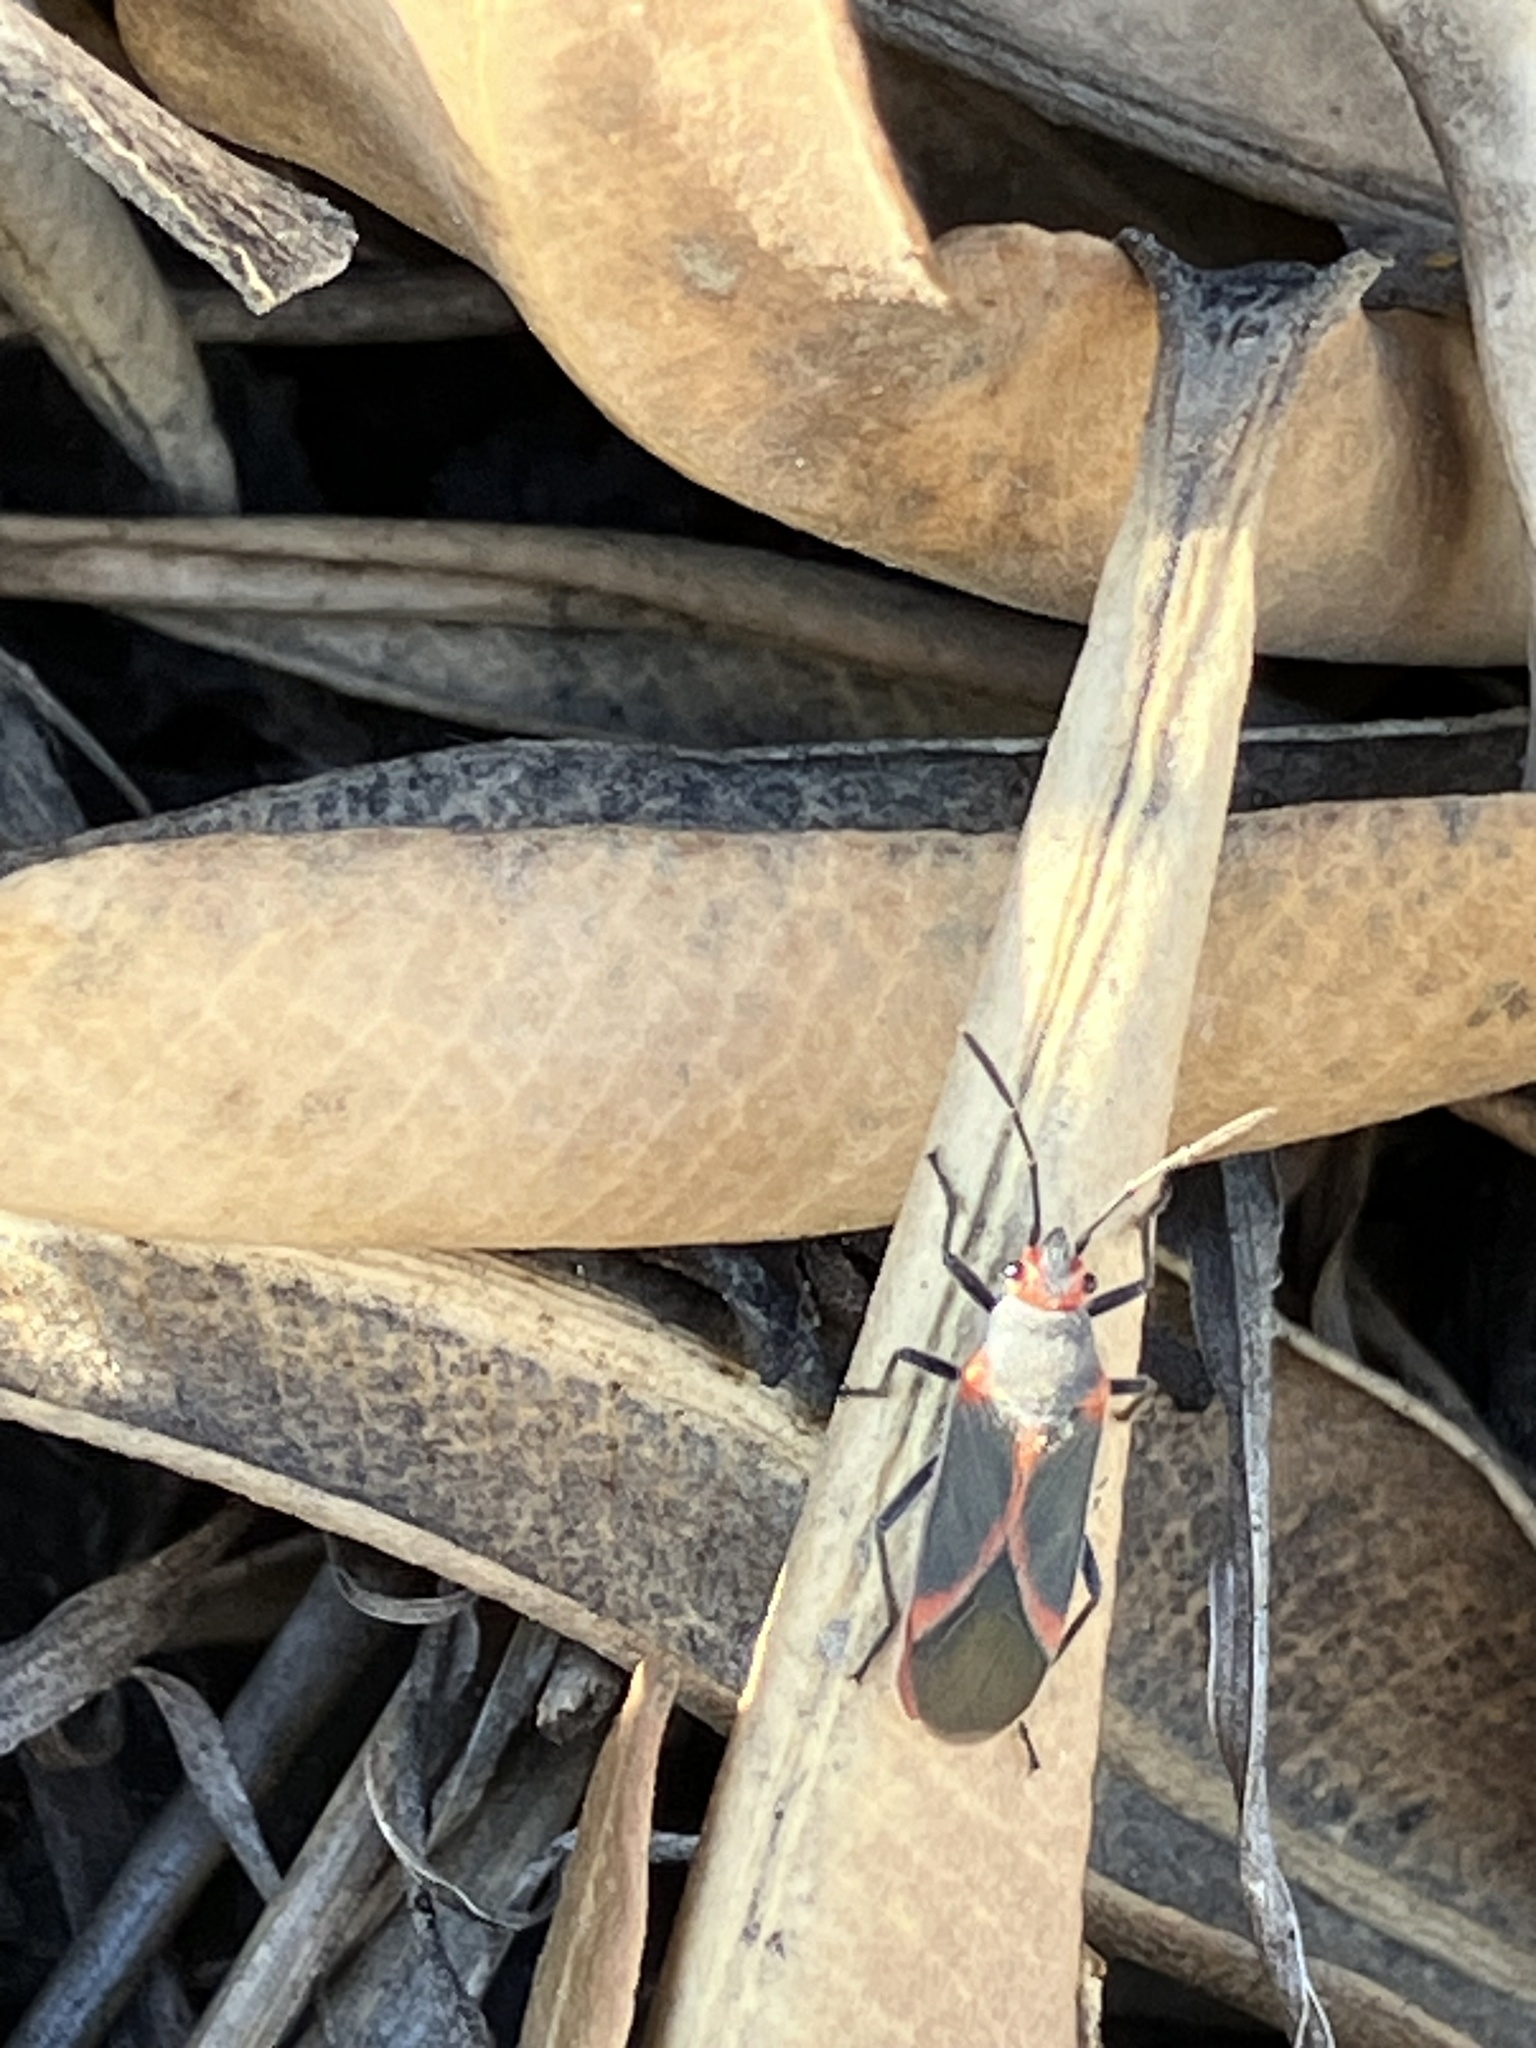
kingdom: Animalia
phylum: Arthropoda
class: Insecta
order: Hemiptera
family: Lygaeidae
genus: Caenocoris
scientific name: Caenocoris nerii
